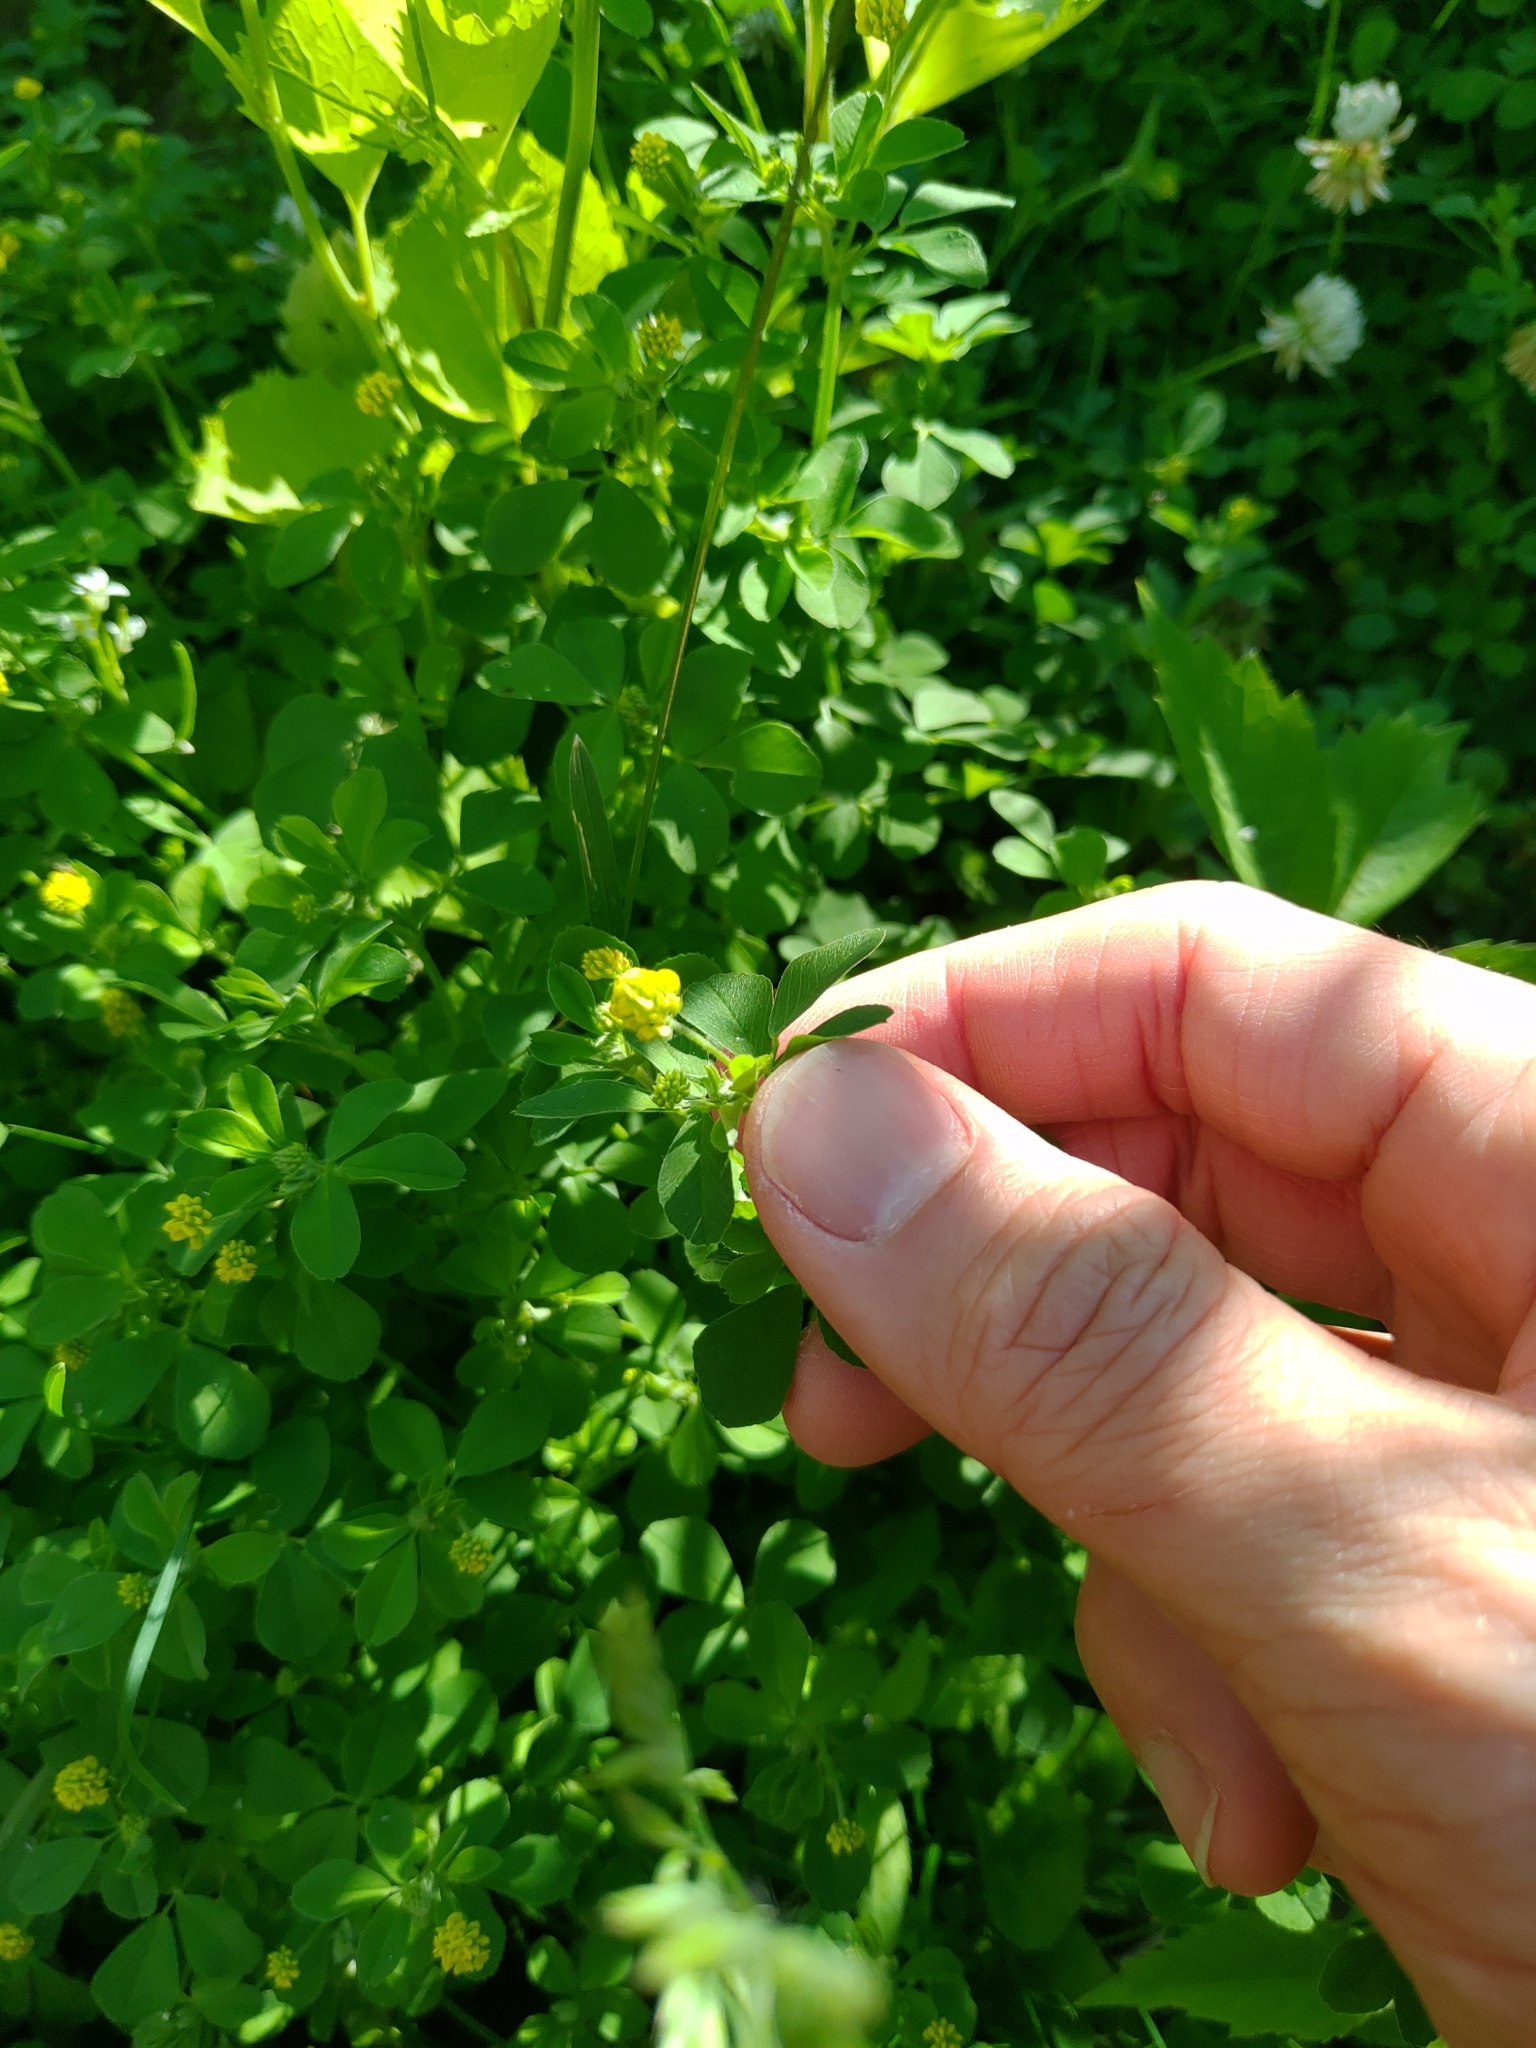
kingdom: Plantae
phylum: Tracheophyta
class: Magnoliopsida
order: Fabales
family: Fabaceae
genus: Medicago
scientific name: Medicago lupulina
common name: Black medick
